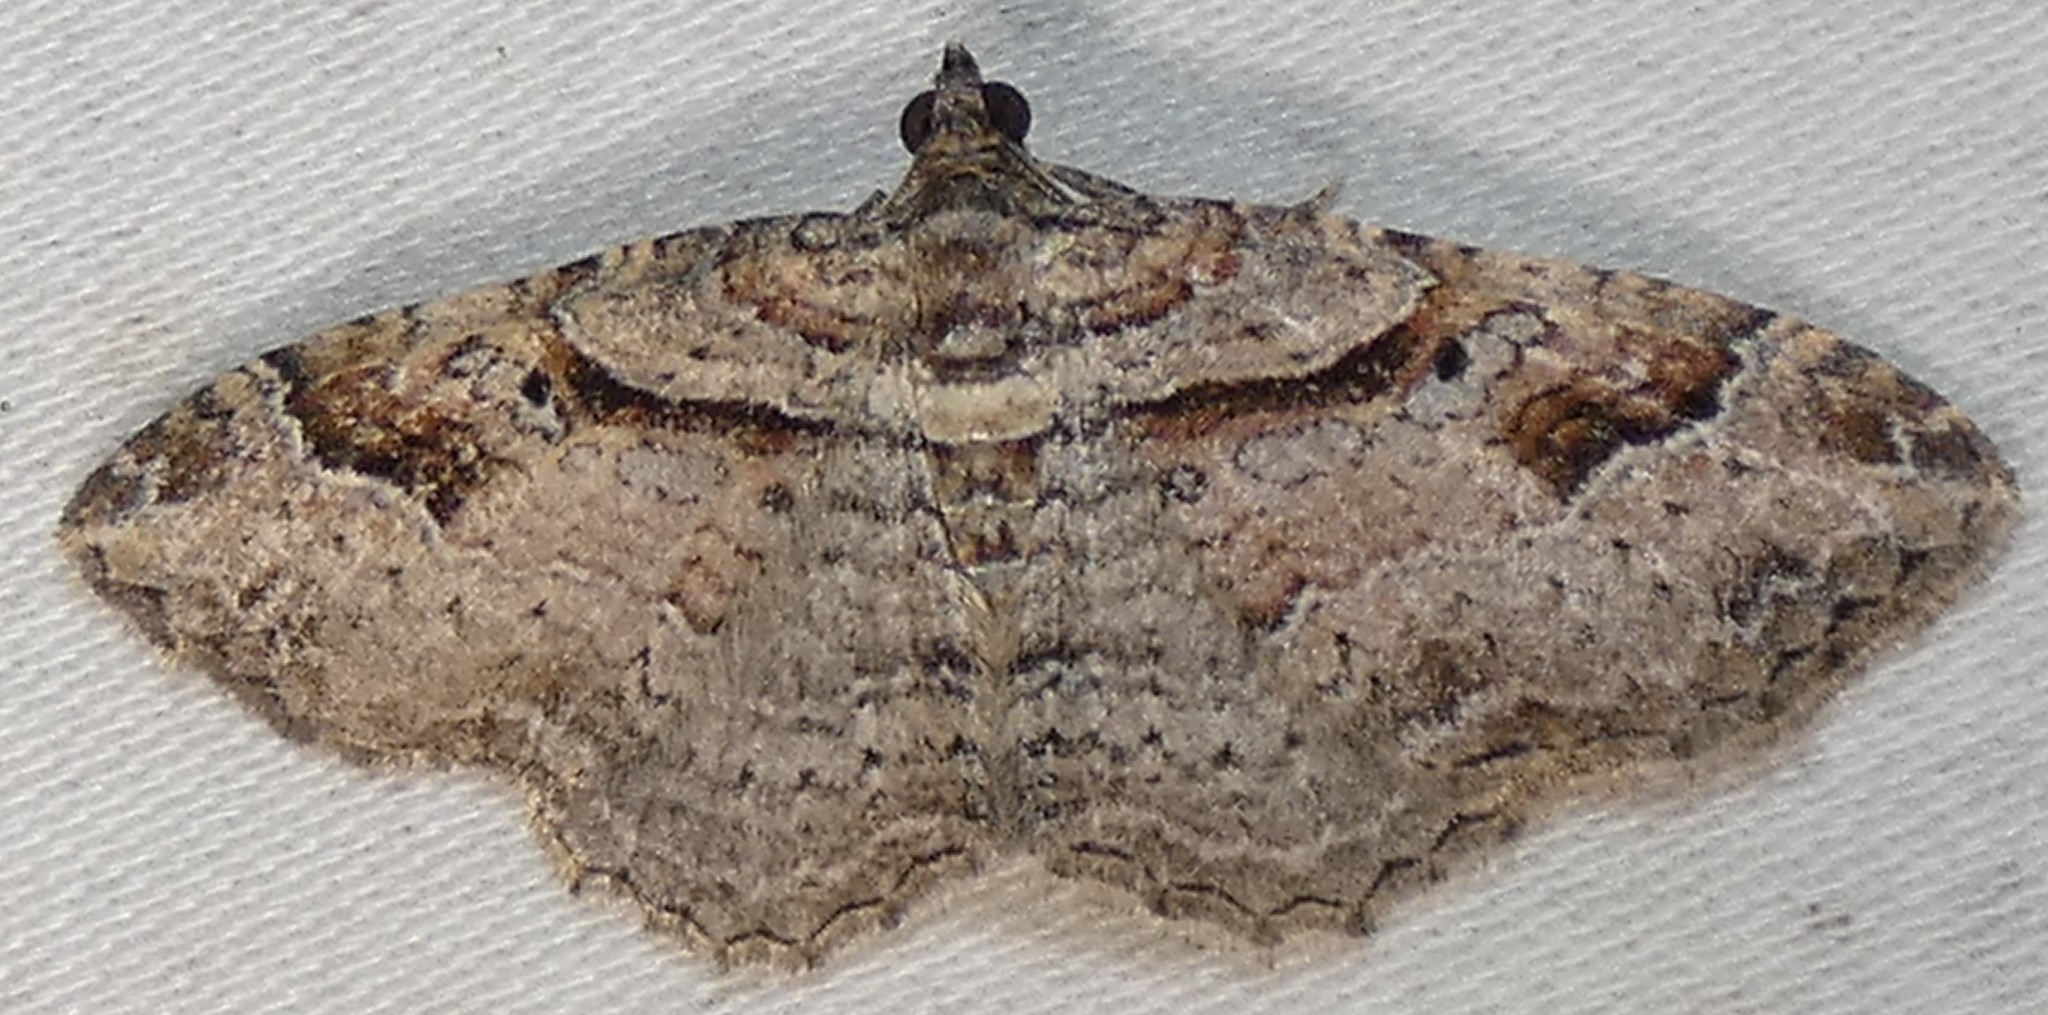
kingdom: Animalia
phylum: Arthropoda
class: Insecta
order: Lepidoptera
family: Geometridae
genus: Costaconvexa
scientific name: Costaconvexa centrostrigaria
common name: Bent-line carpet
